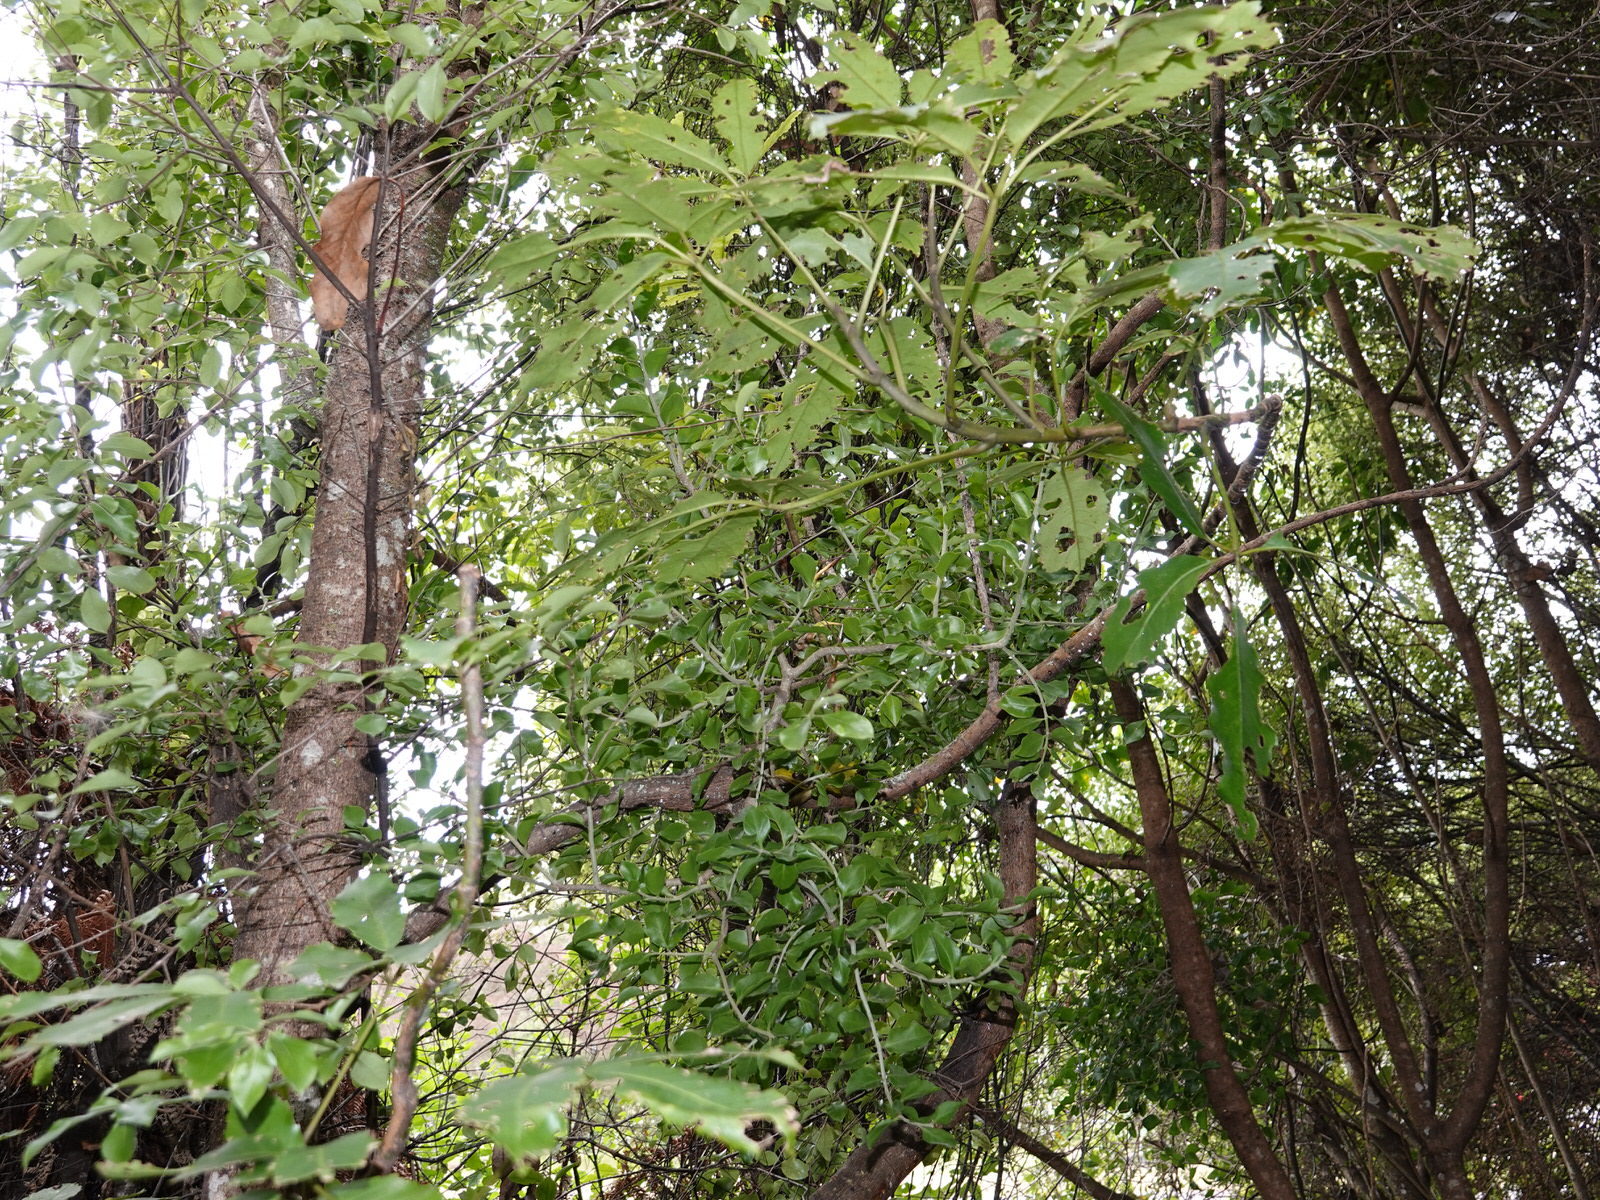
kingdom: Plantae
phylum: Tracheophyta
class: Magnoliopsida
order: Santalales
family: Loranthaceae
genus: Tupeia
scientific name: Tupeia antarctica
